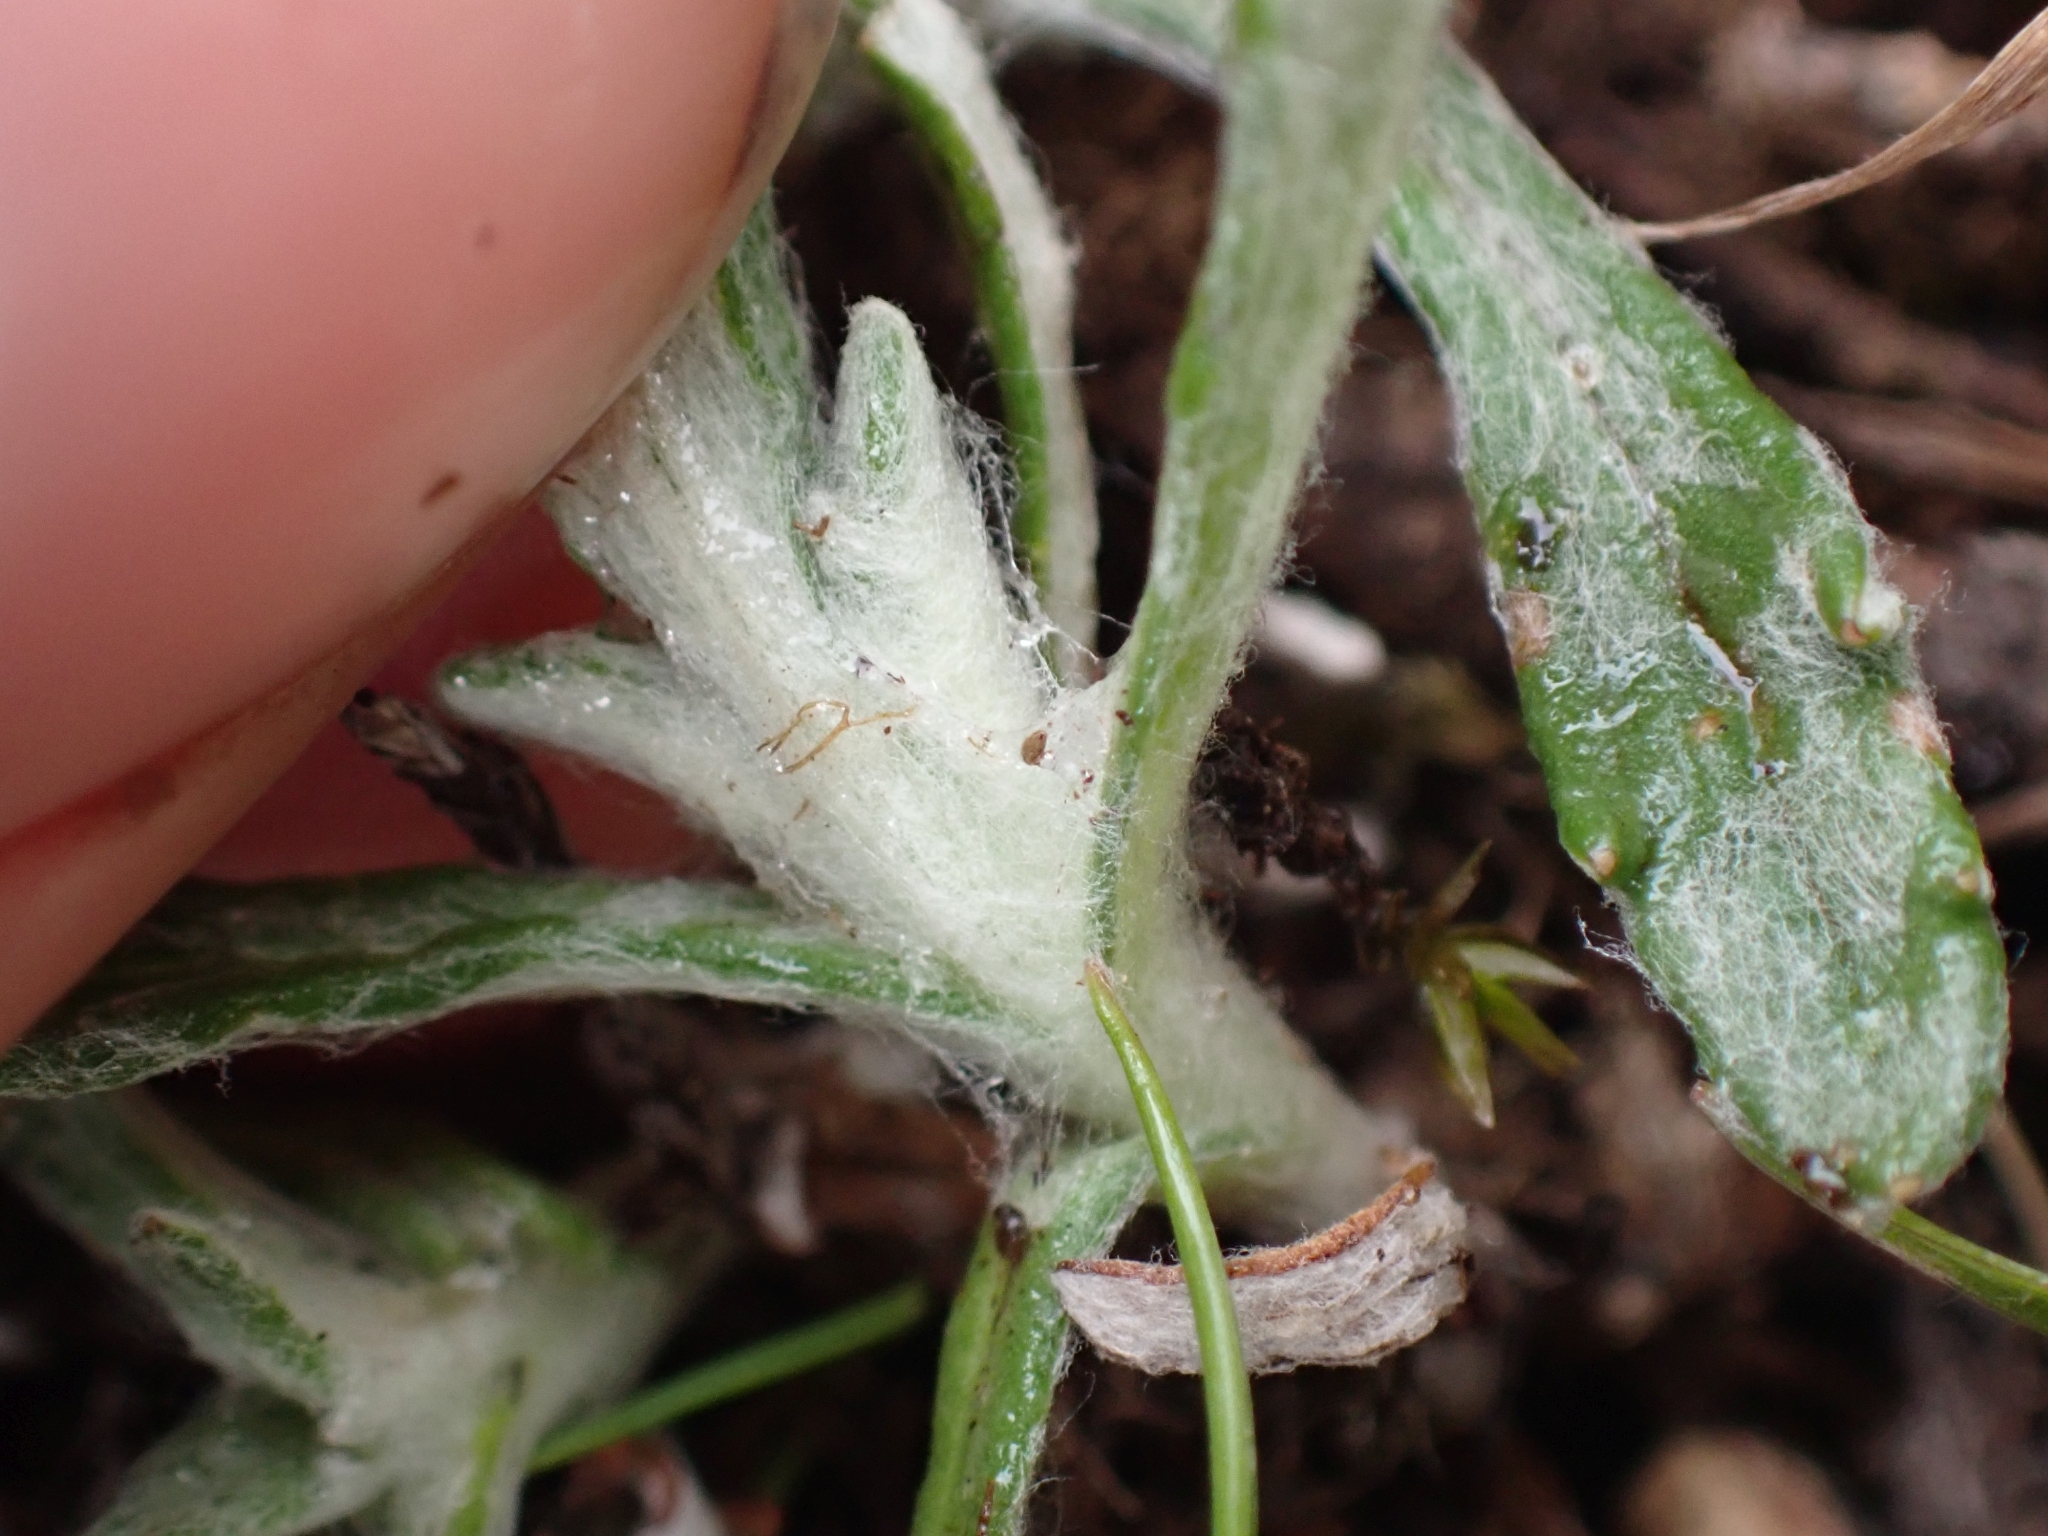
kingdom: Plantae
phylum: Tracheophyta
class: Magnoliopsida
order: Asterales
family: Asteraceae
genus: Eriophyllum
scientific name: Eriophyllum lanatum
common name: Common woolly-sunflower
